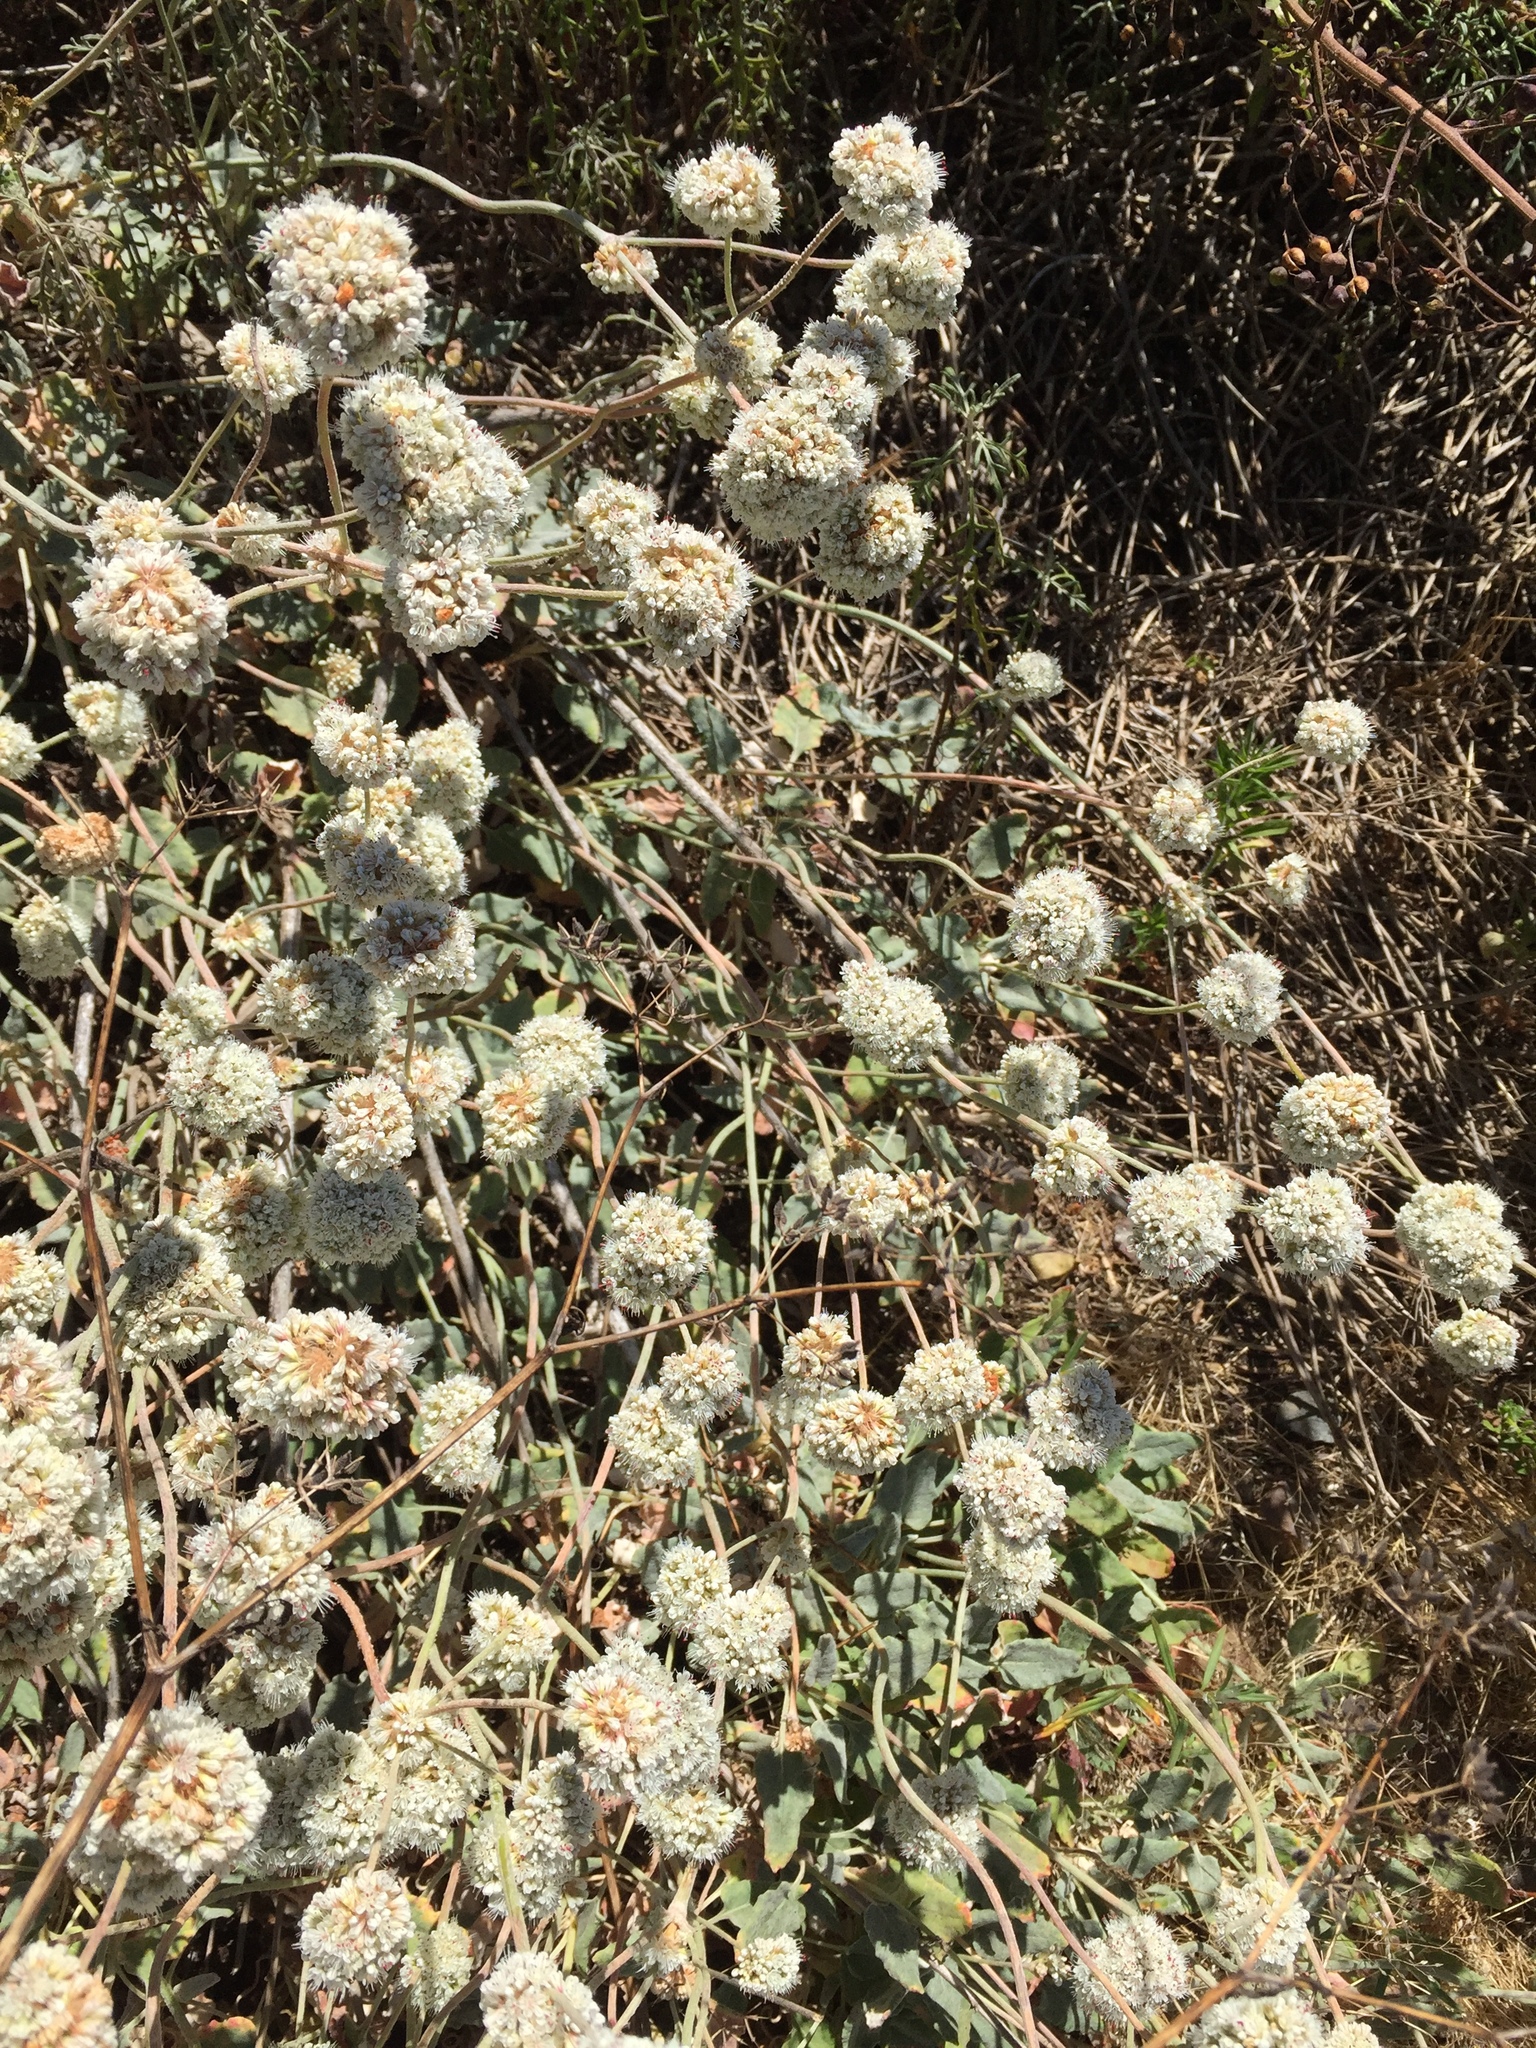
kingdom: Plantae
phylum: Tracheophyta
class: Magnoliopsida
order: Caryophyllales
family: Polygonaceae
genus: Eriogonum
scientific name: Eriogonum latifolium
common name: Seaside wild buckwheat
